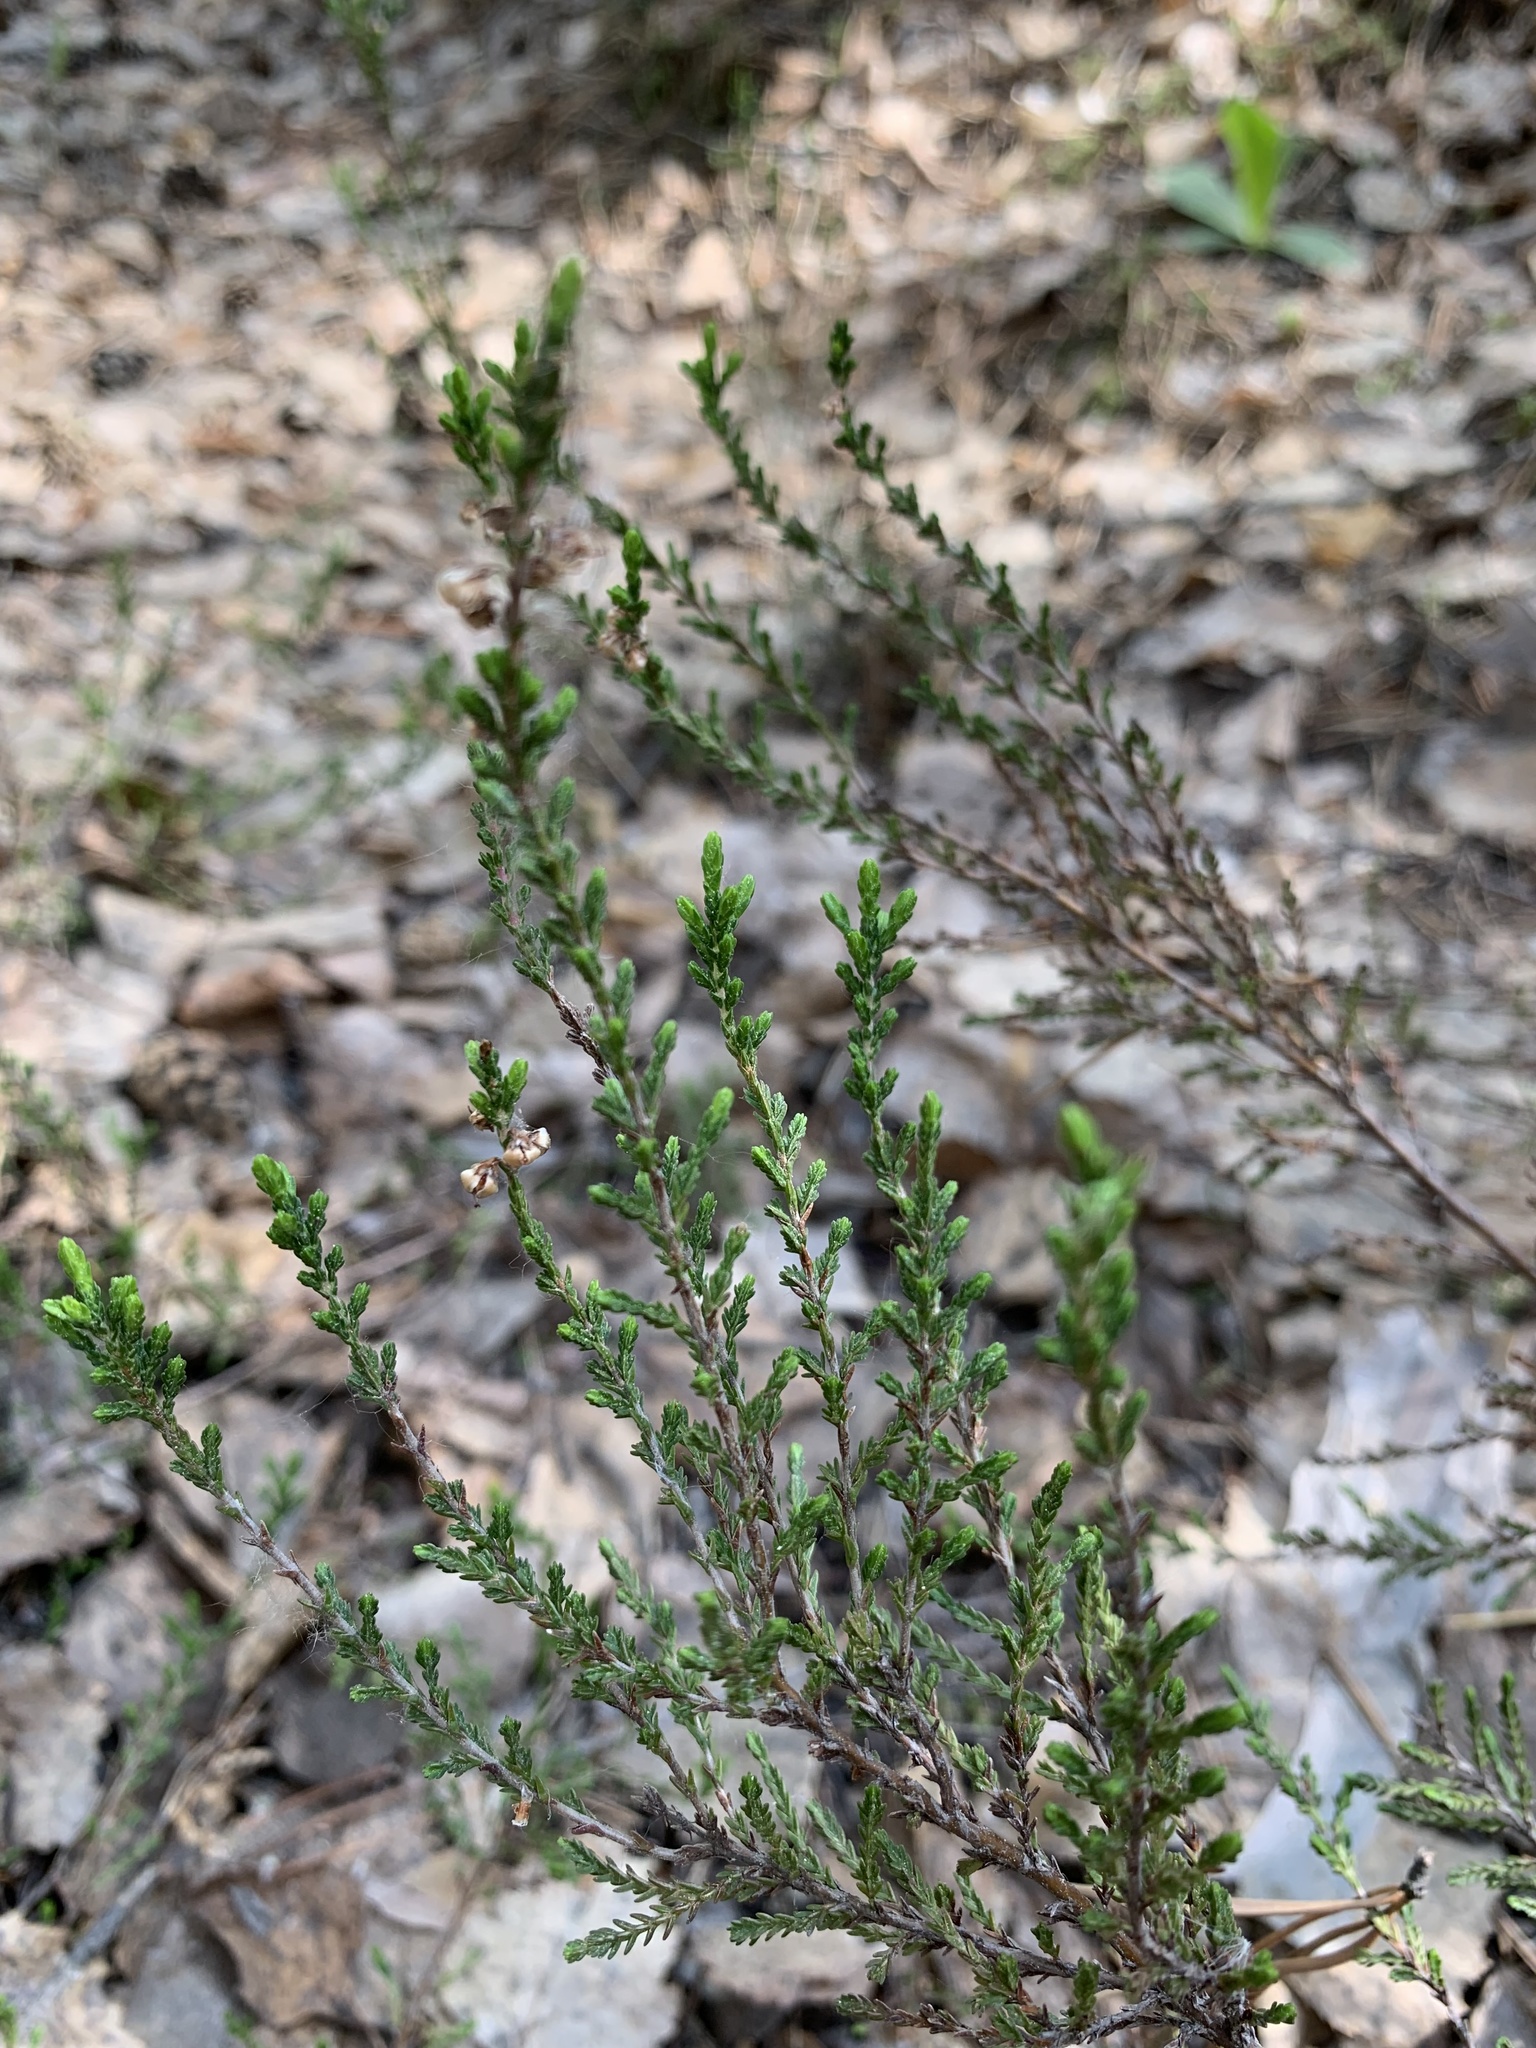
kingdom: Plantae
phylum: Tracheophyta
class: Magnoliopsida
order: Ericales
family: Ericaceae
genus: Calluna
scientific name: Calluna vulgaris
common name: Heather
